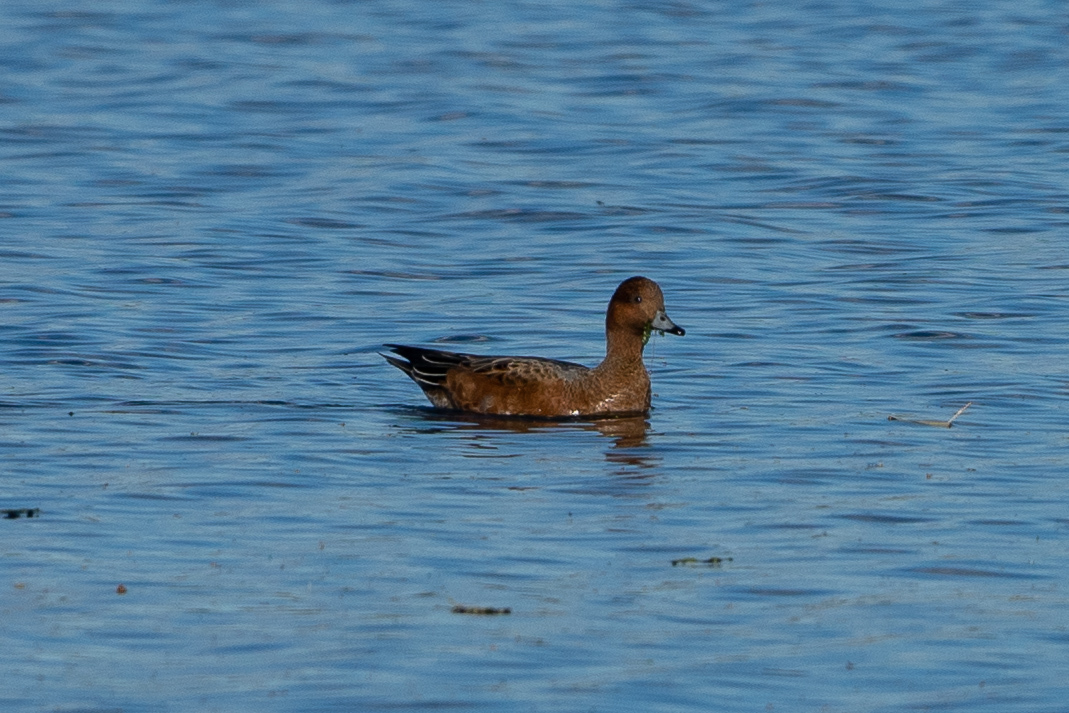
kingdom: Animalia
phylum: Chordata
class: Aves
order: Anseriformes
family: Anatidae
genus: Mareca
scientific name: Mareca penelope
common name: Eurasian wigeon
